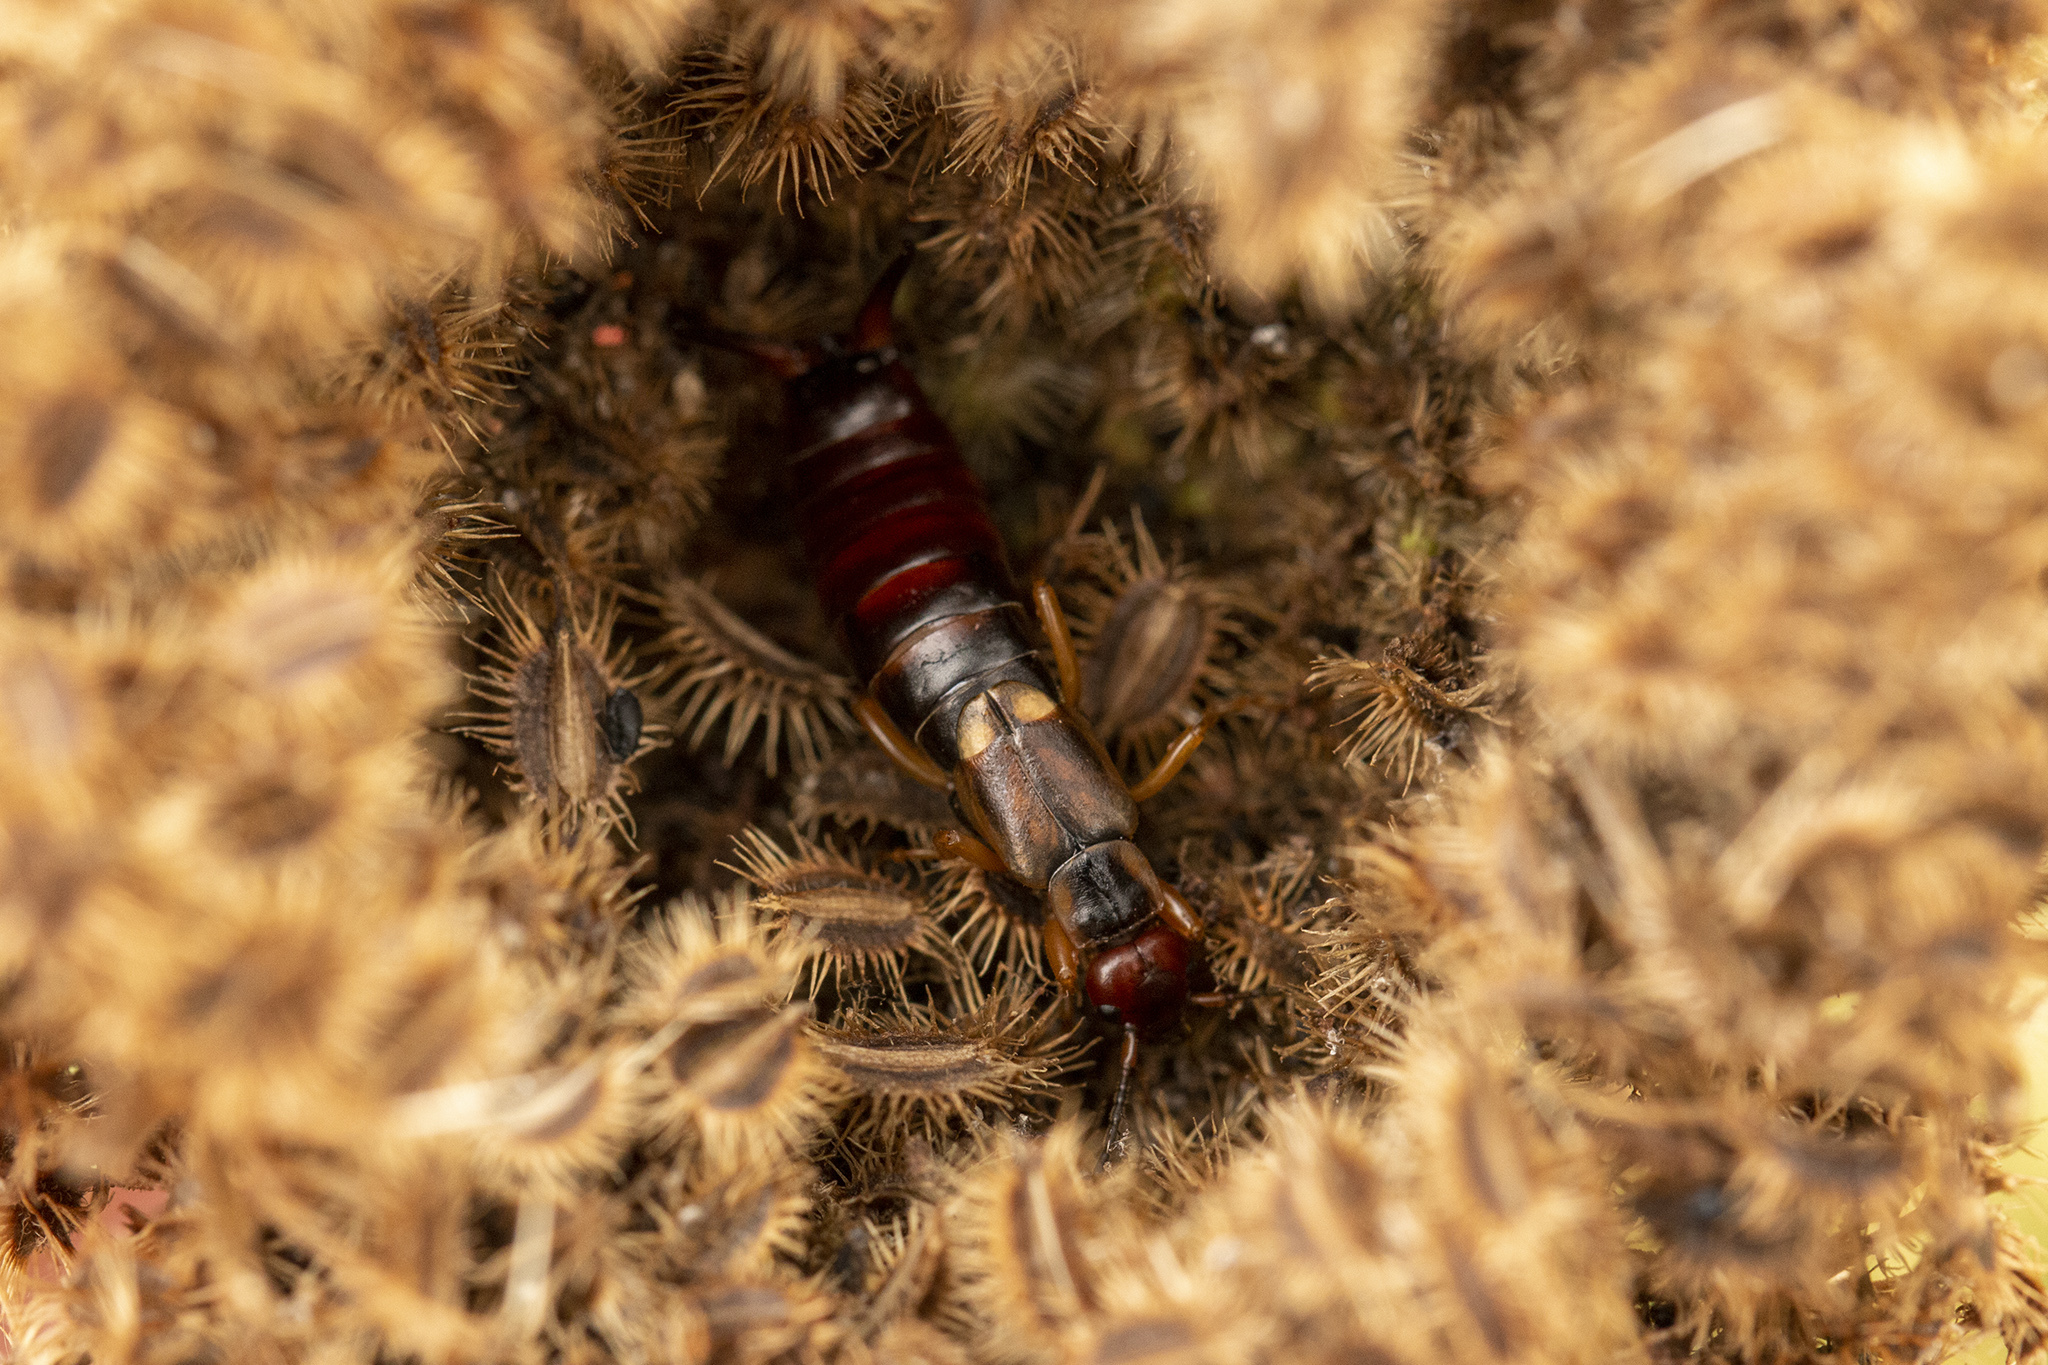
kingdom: Animalia
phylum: Arthropoda
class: Insecta
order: Dermaptera
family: Forficulidae
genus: Forficula
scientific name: Forficula
